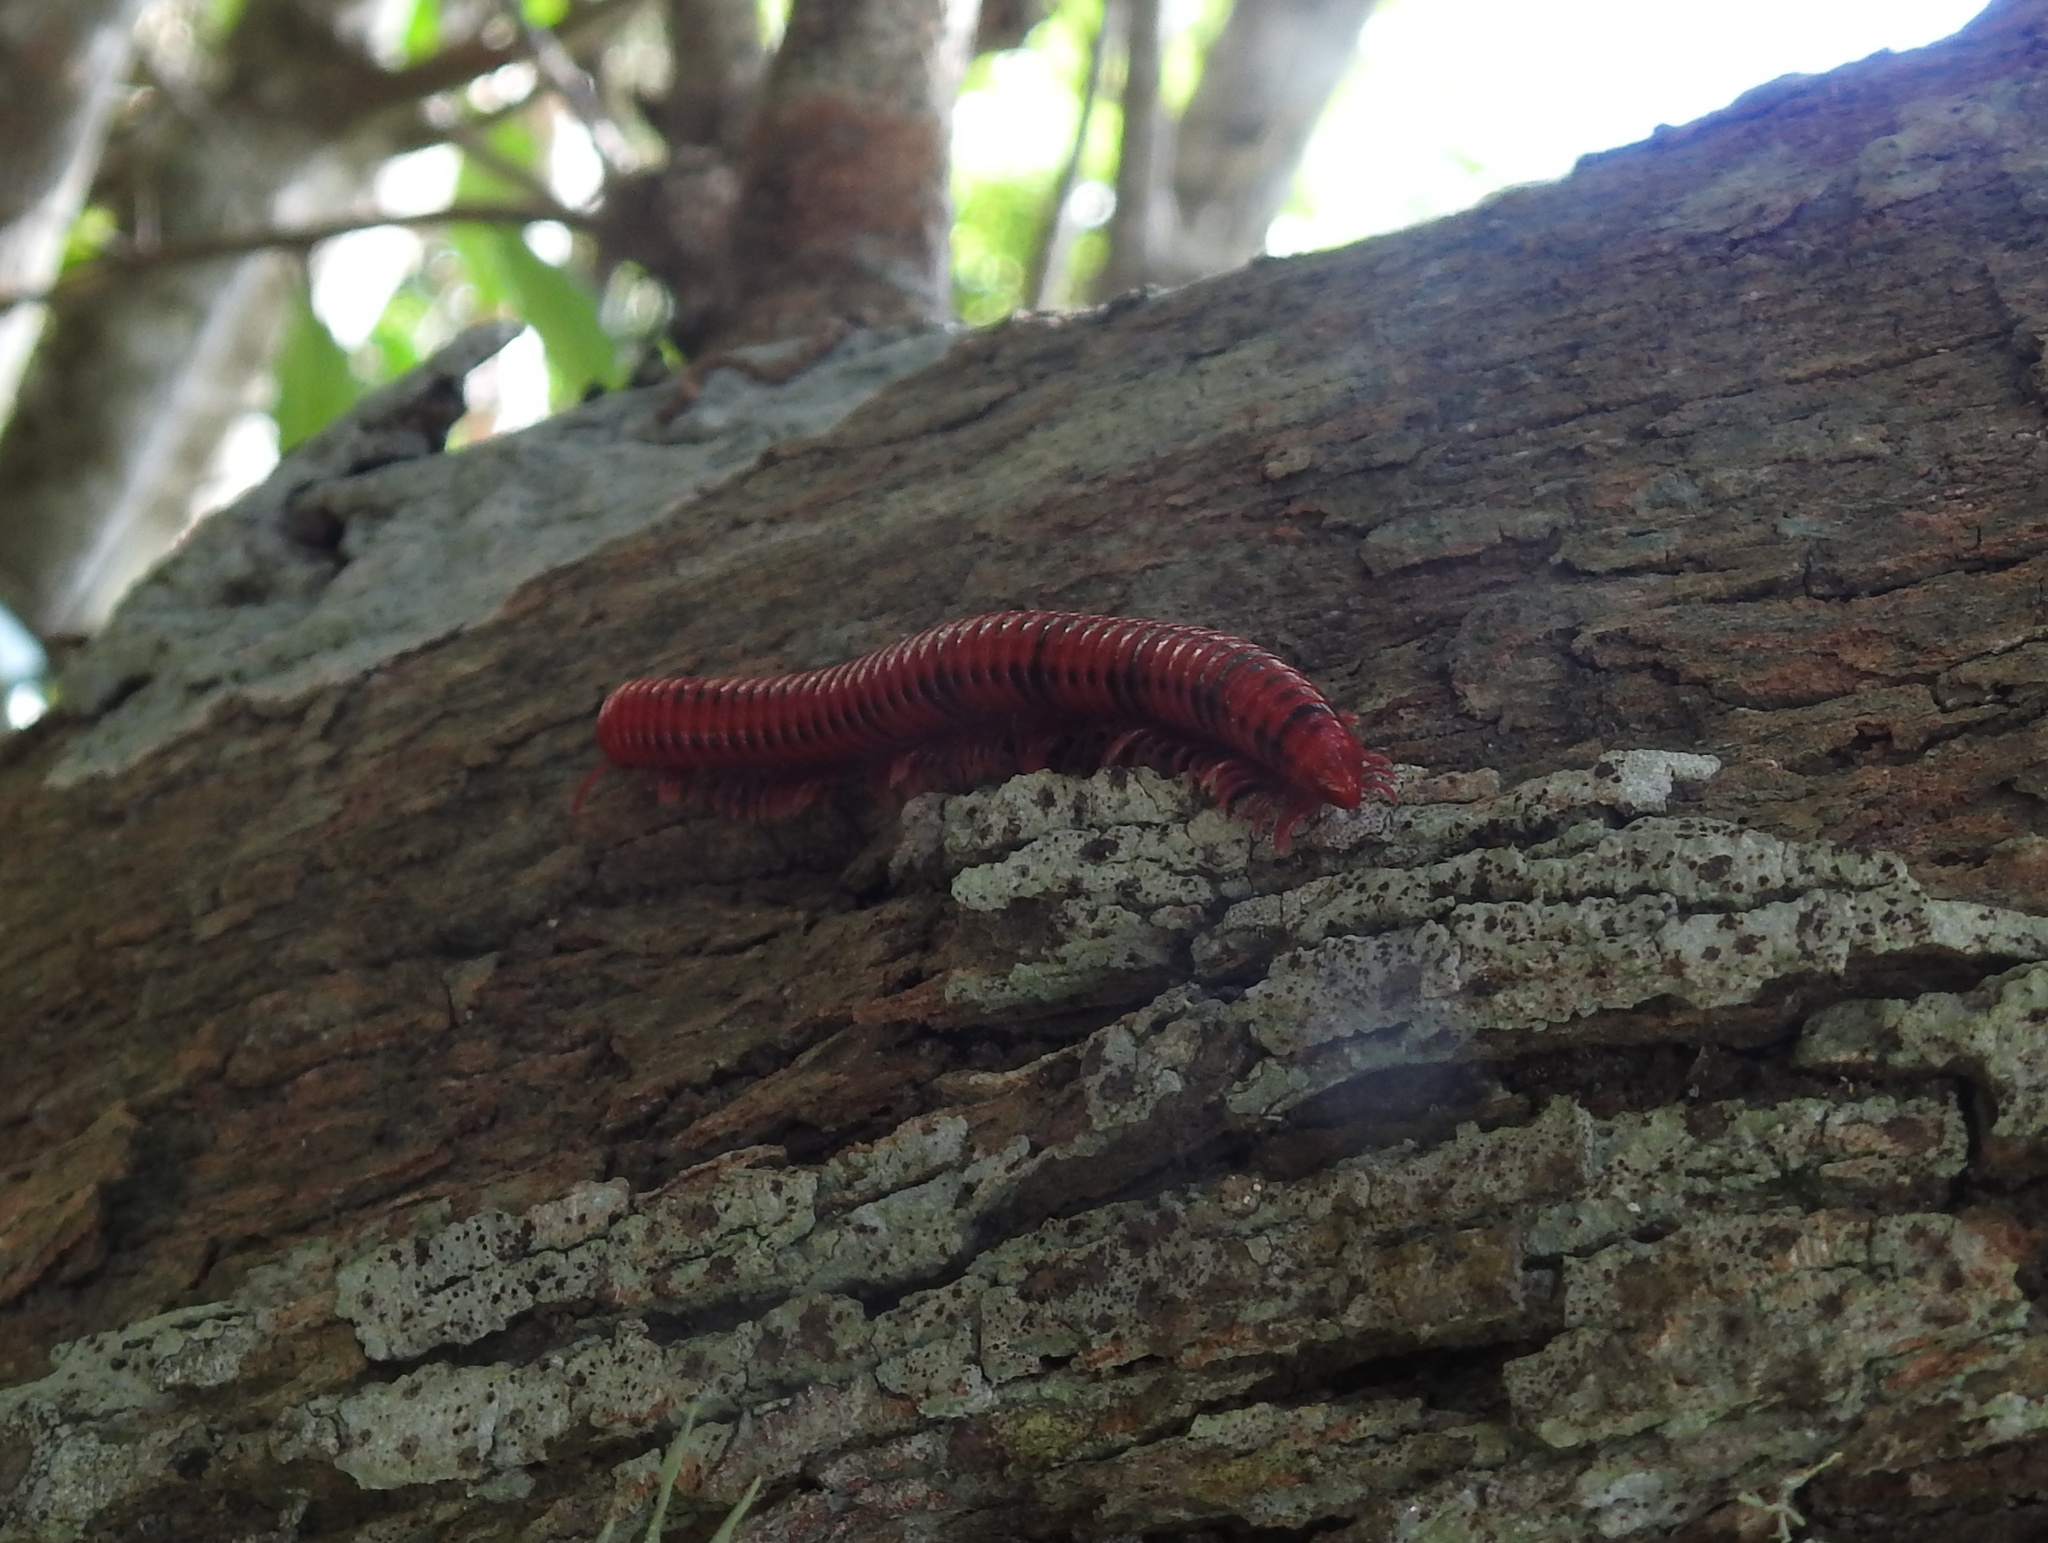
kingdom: Animalia
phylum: Arthropoda
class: Diplopoda
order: Spirobolida
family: Pachybolidae
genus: Centrobolus
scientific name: Centrobolus ruber
